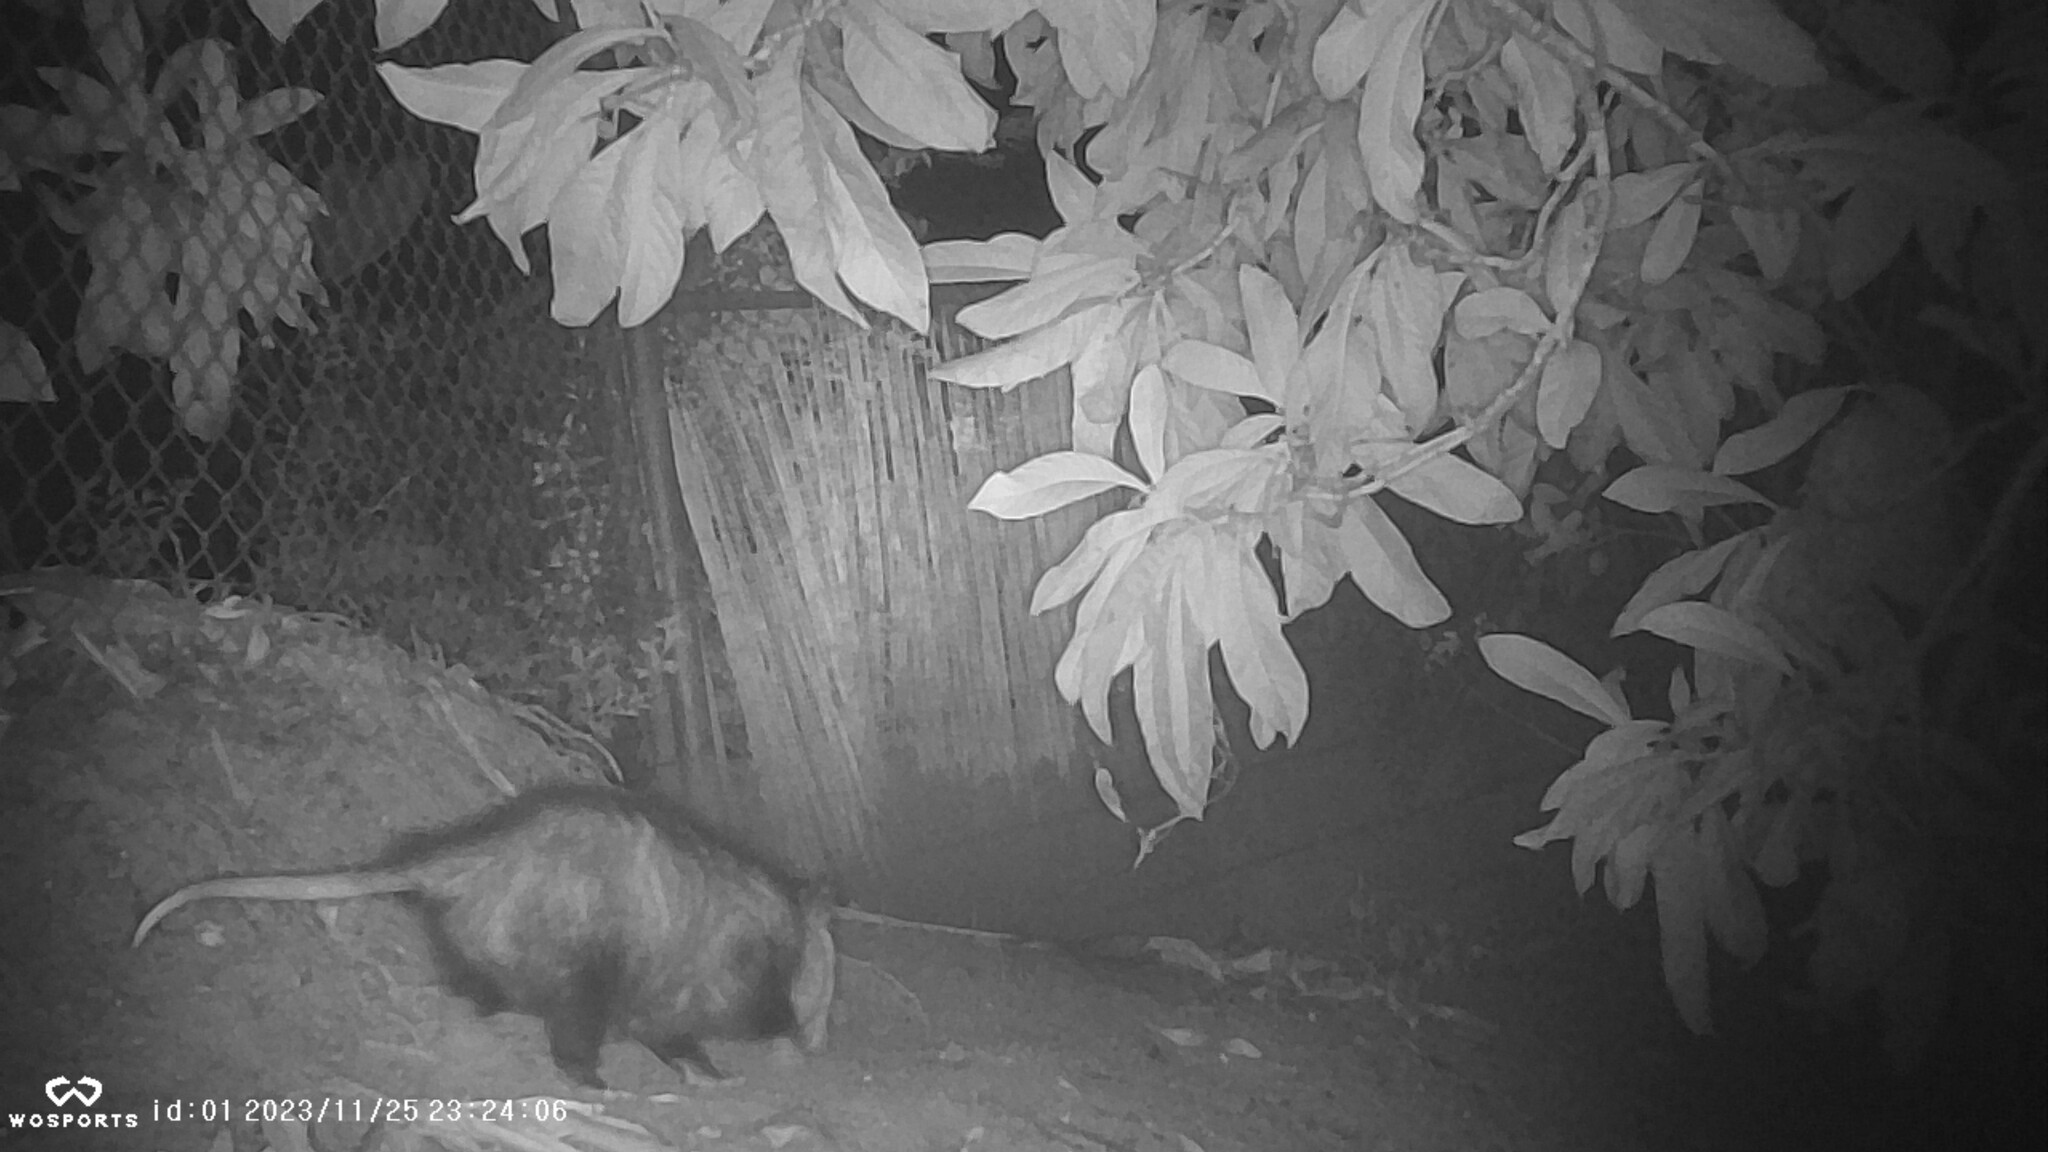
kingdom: Animalia
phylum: Chordata
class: Mammalia
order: Didelphimorphia
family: Didelphidae
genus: Didelphis
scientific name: Didelphis virginiana
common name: Virginia opossum
